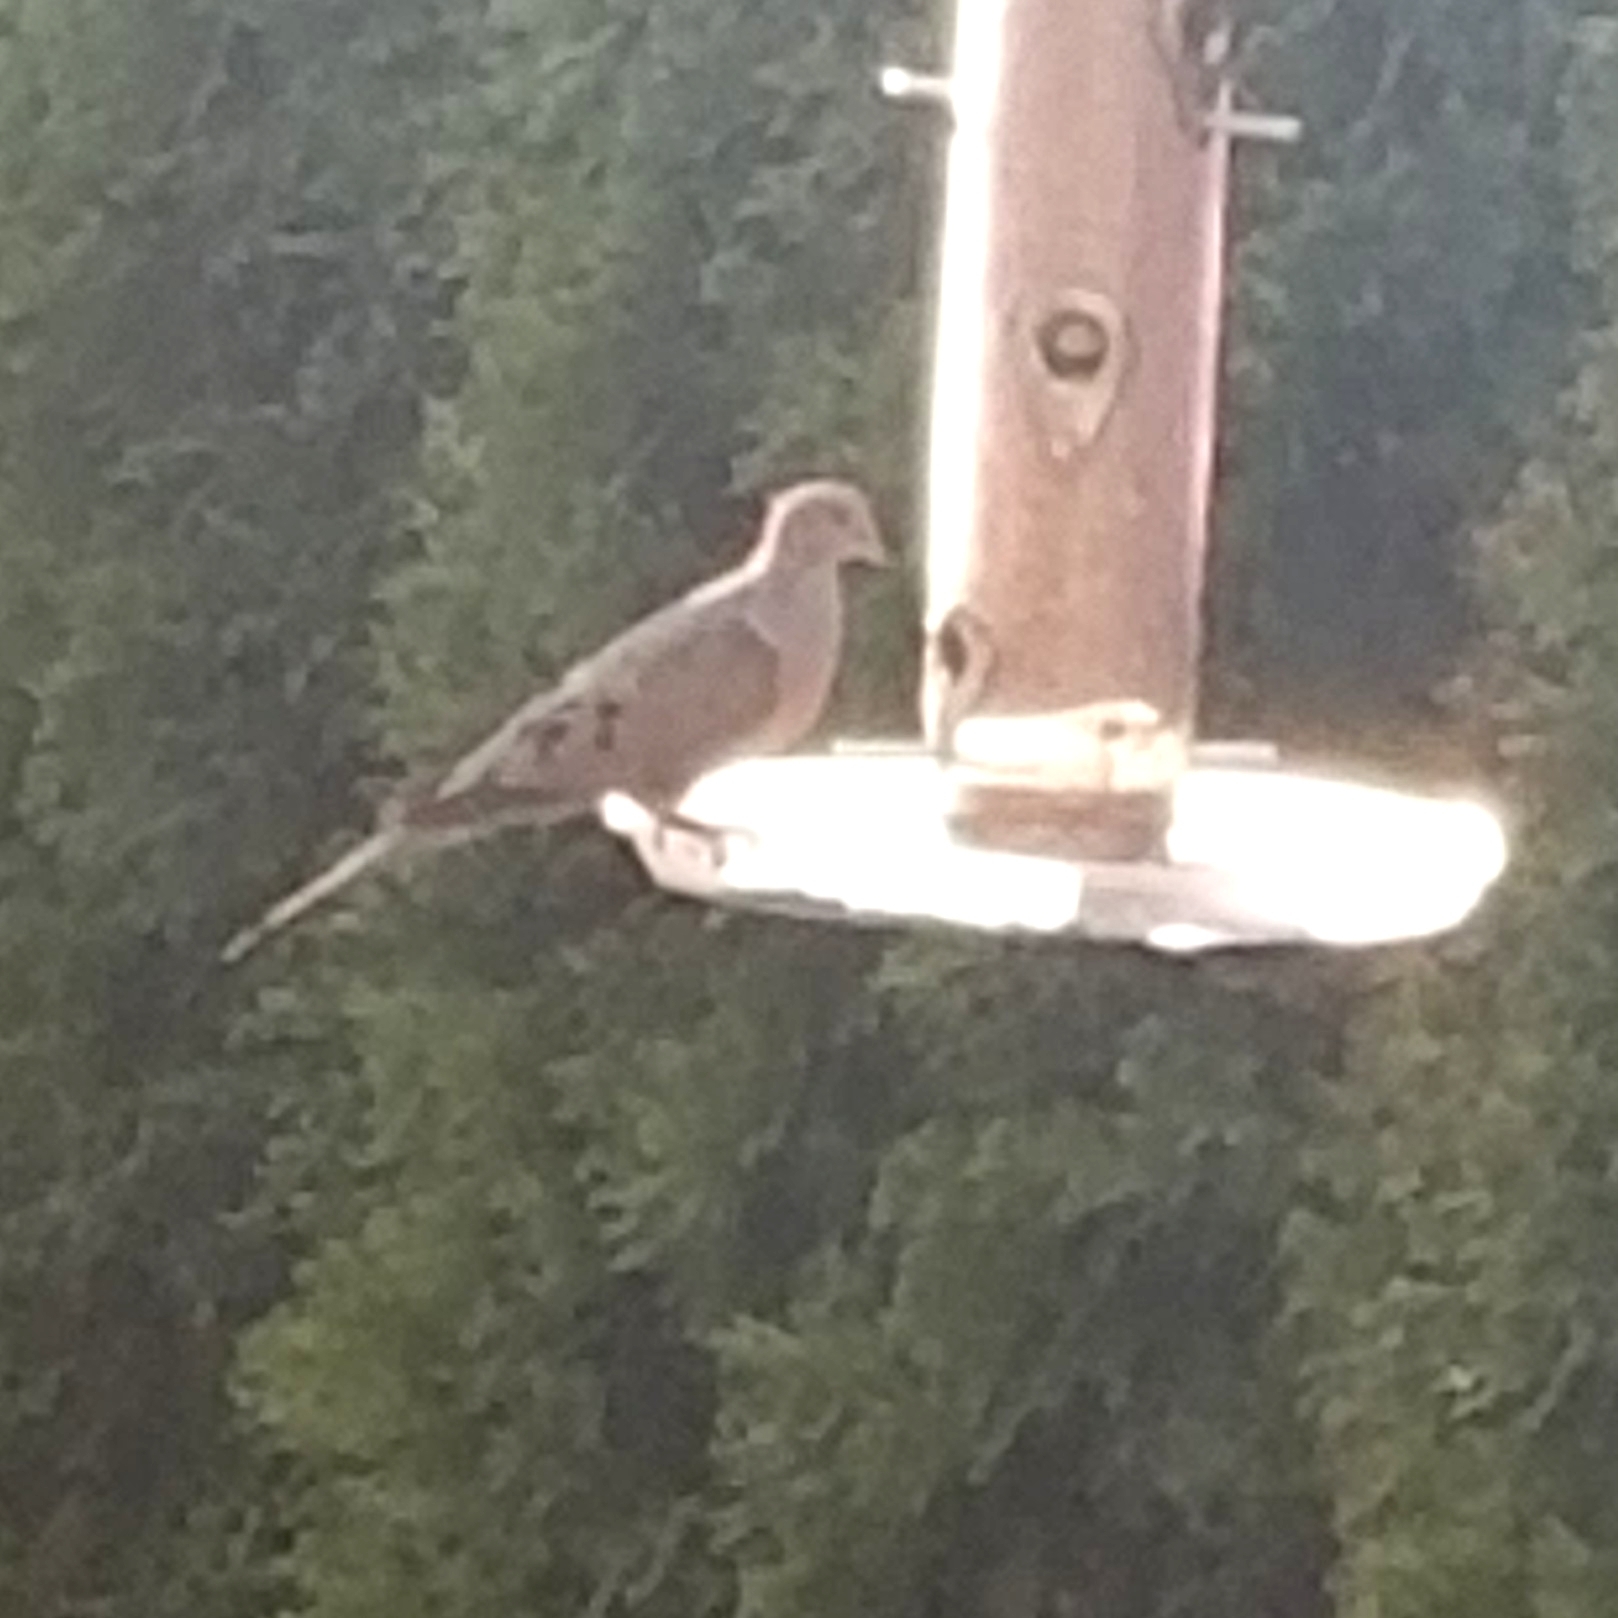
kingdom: Animalia
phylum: Chordata
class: Aves
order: Columbiformes
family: Columbidae
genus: Zenaida
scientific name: Zenaida macroura
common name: Mourning dove
